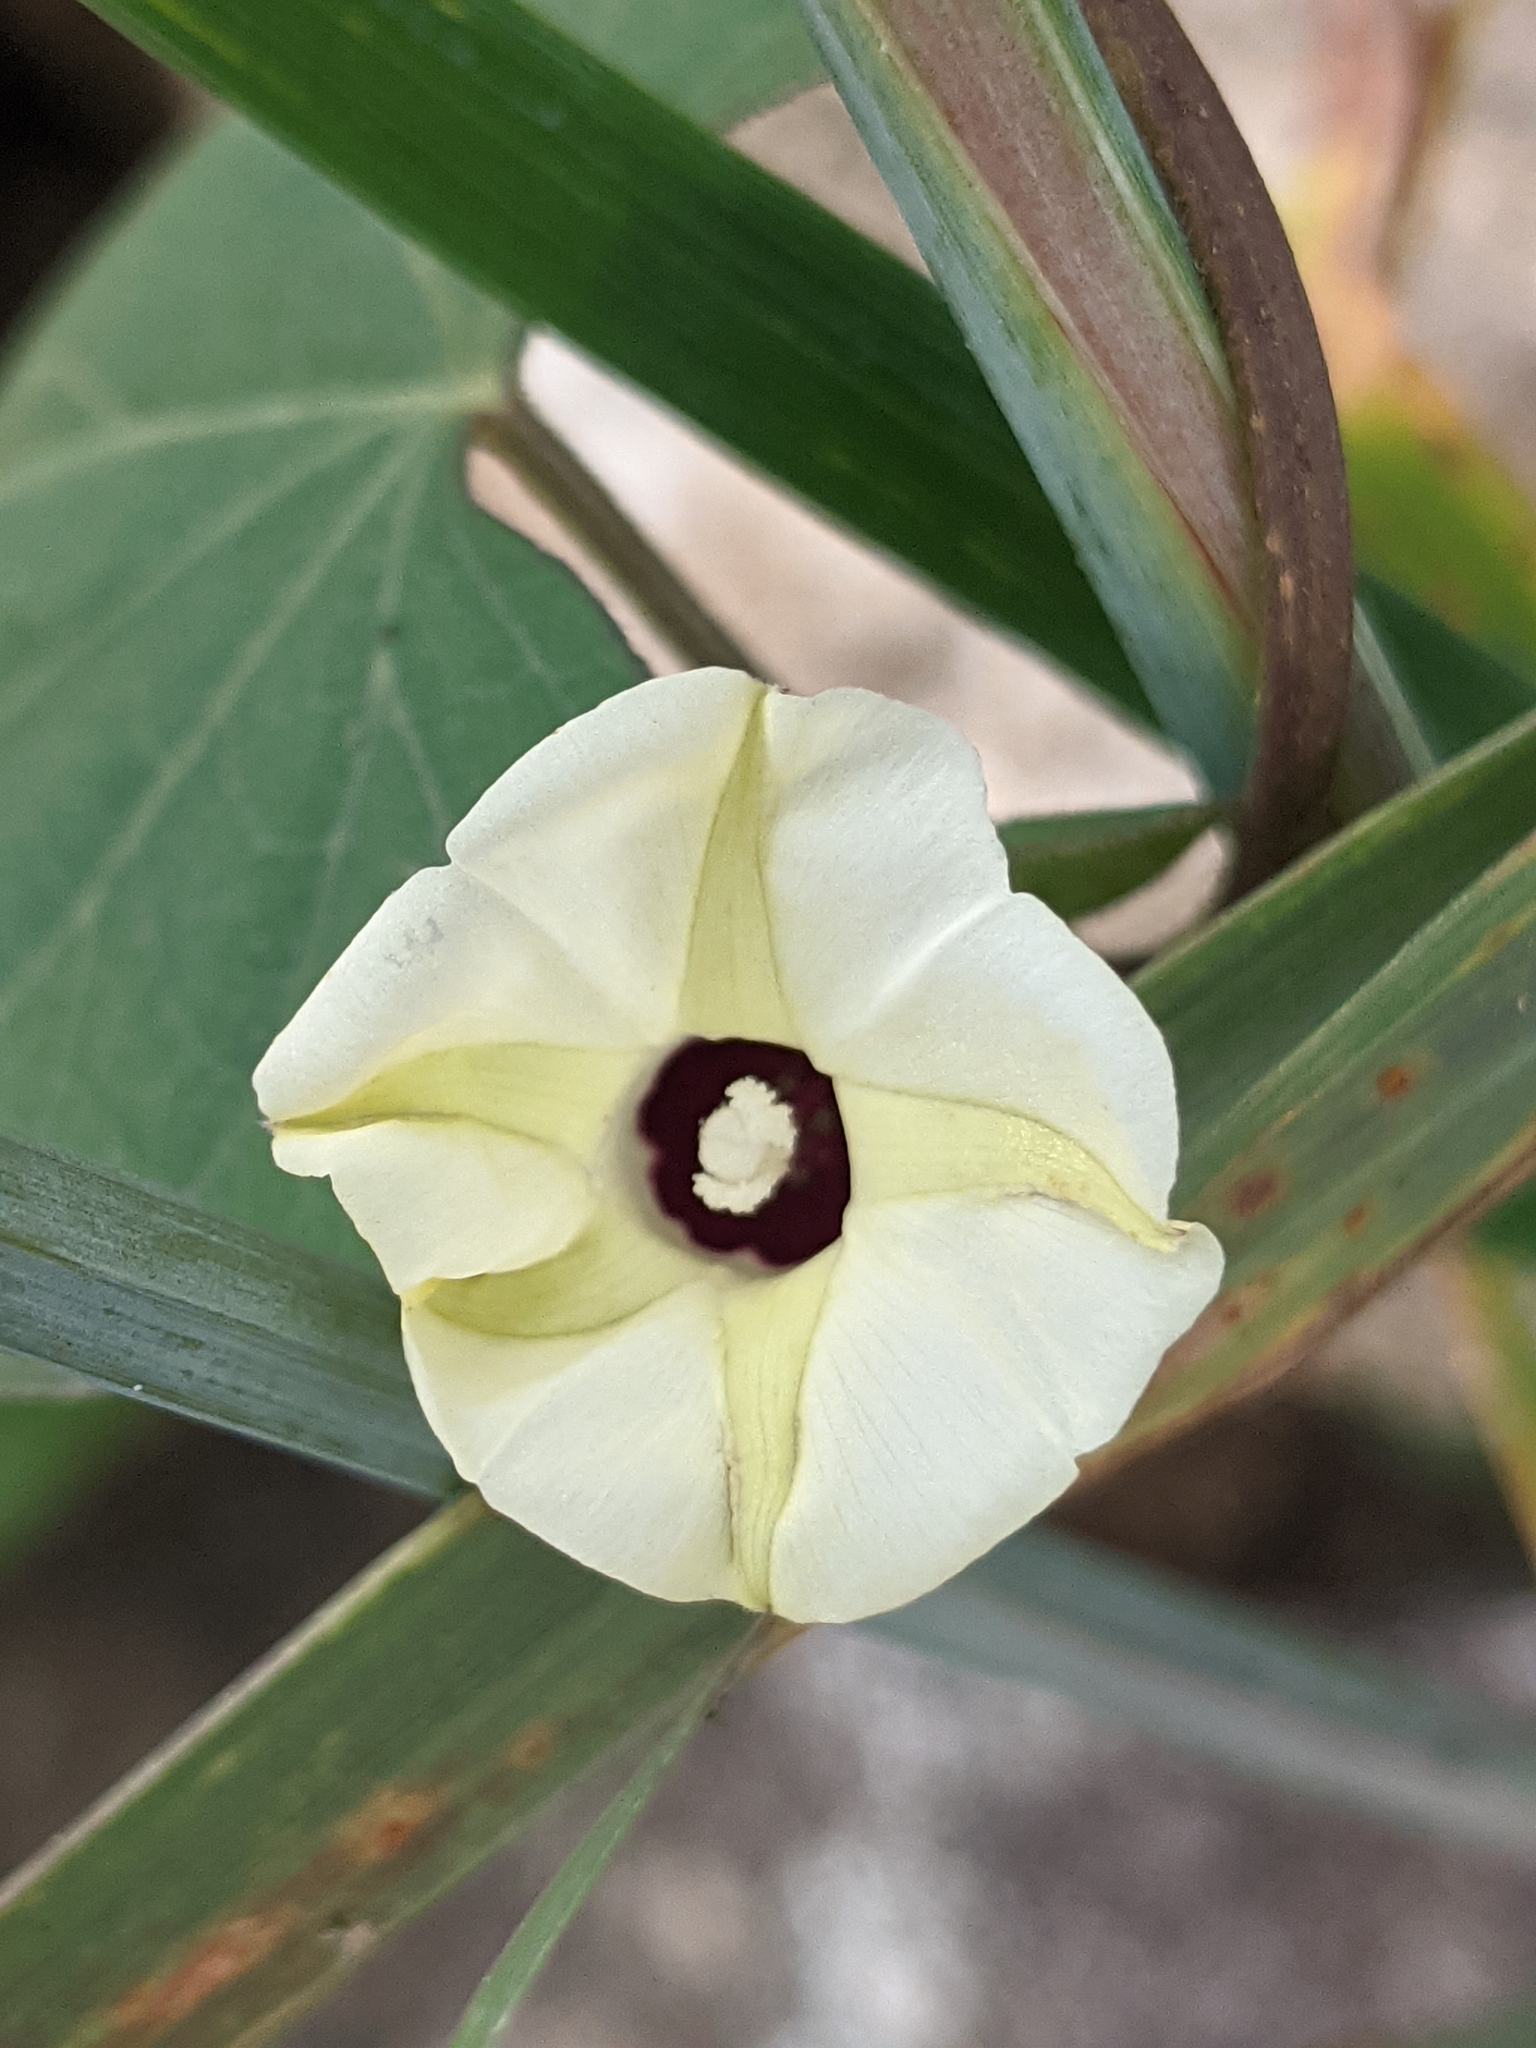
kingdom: Plantae
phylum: Tracheophyta
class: Magnoliopsida
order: Solanales
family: Convolvulaceae
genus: Ipomoea
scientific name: Ipomoea obscura
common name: Obscure morning-glory
